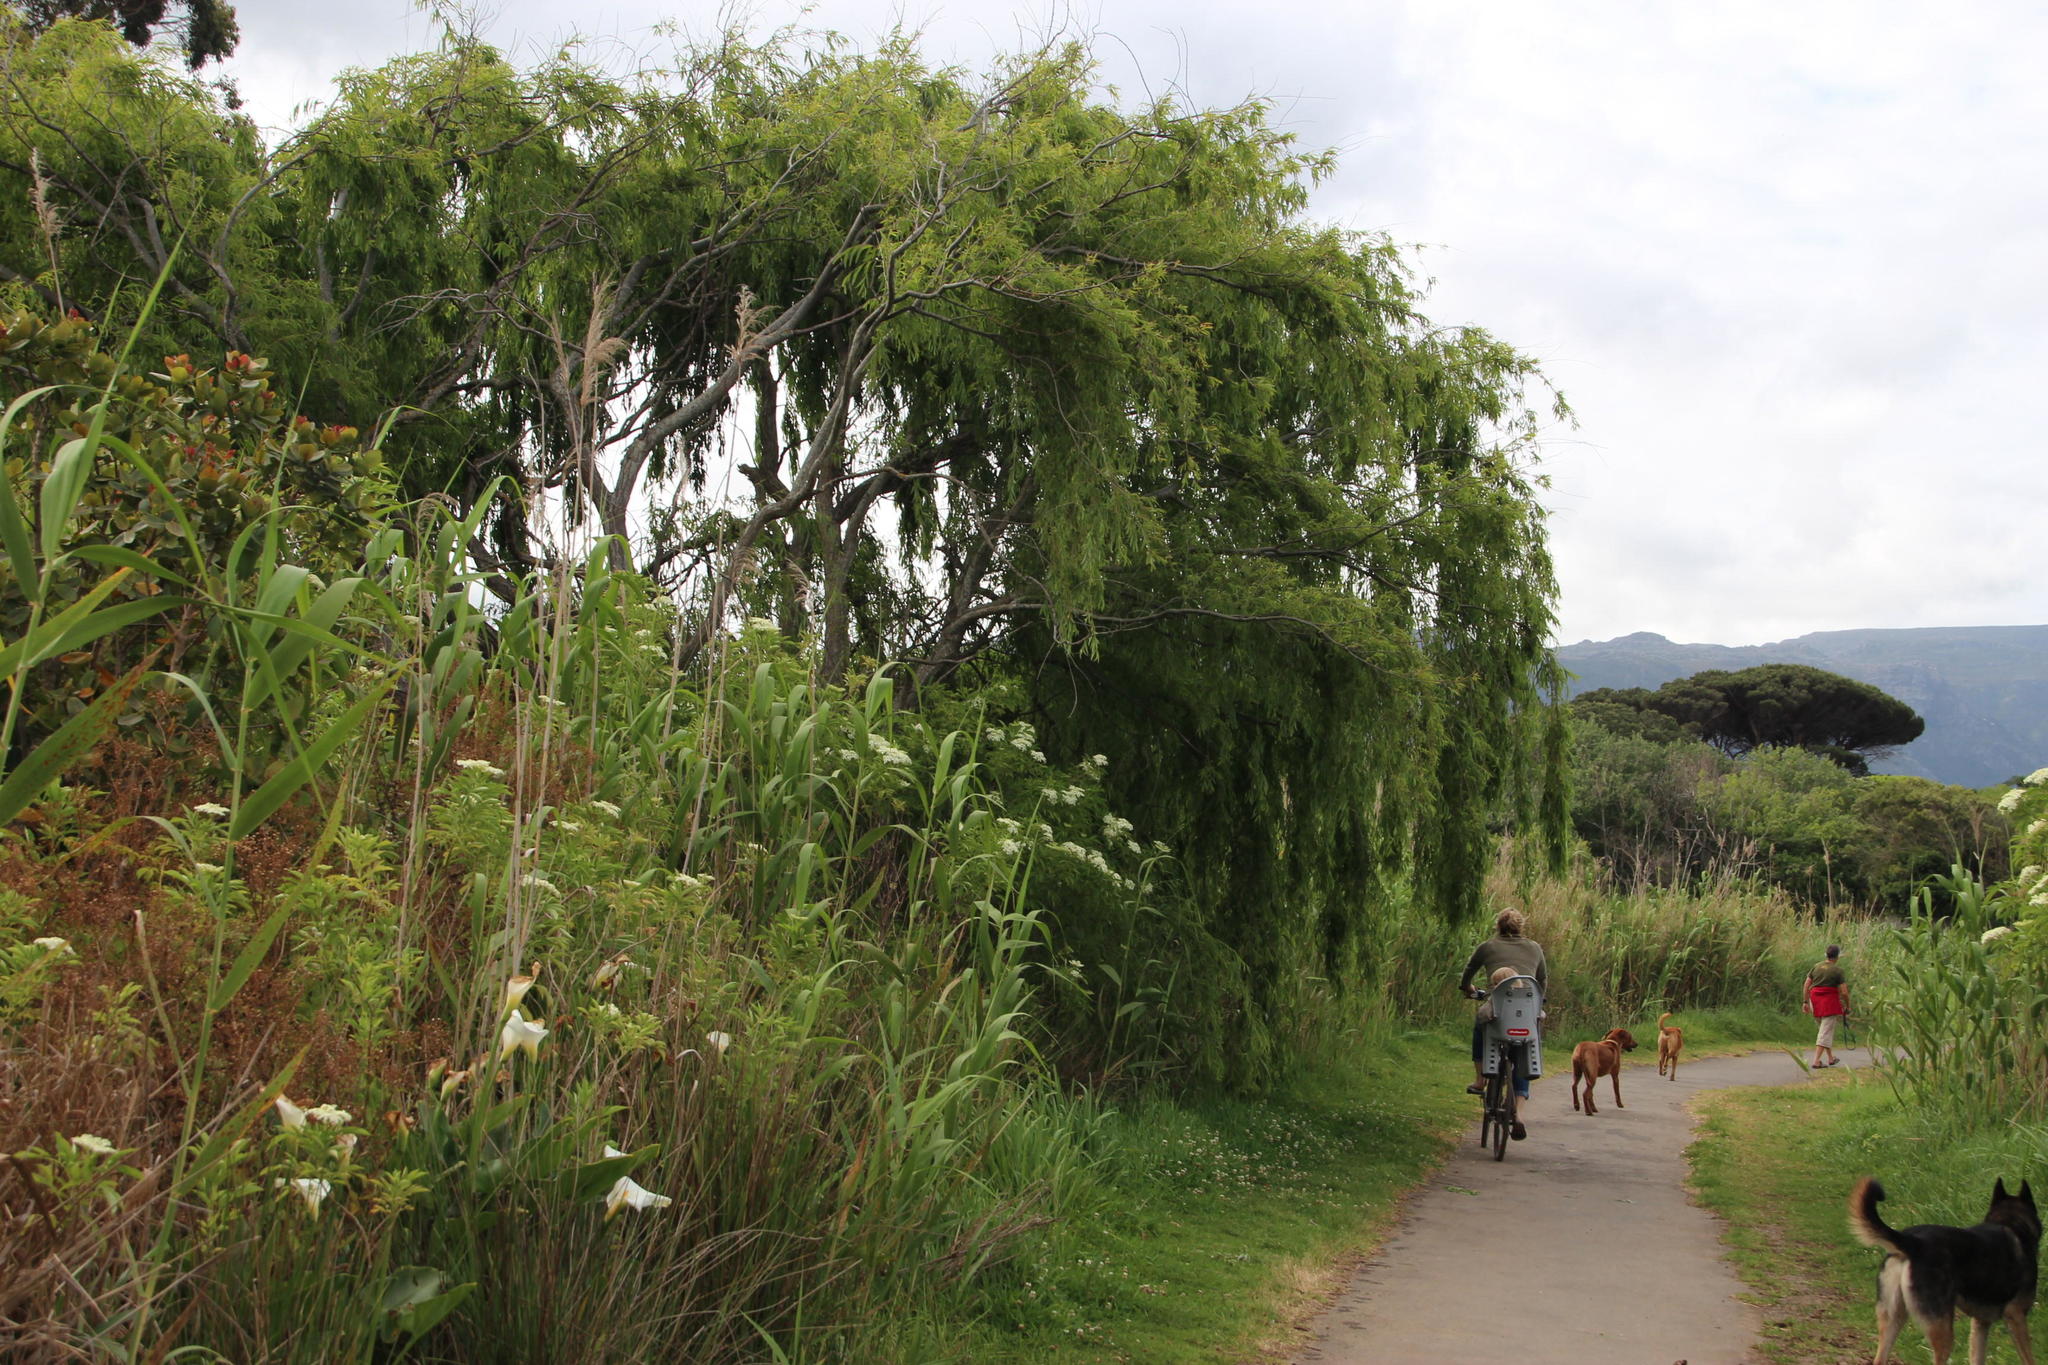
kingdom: Plantae
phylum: Tracheophyta
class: Magnoliopsida
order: Malpighiales
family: Salicaceae
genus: Salix
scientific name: Salix babylonica
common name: Weeping willow
